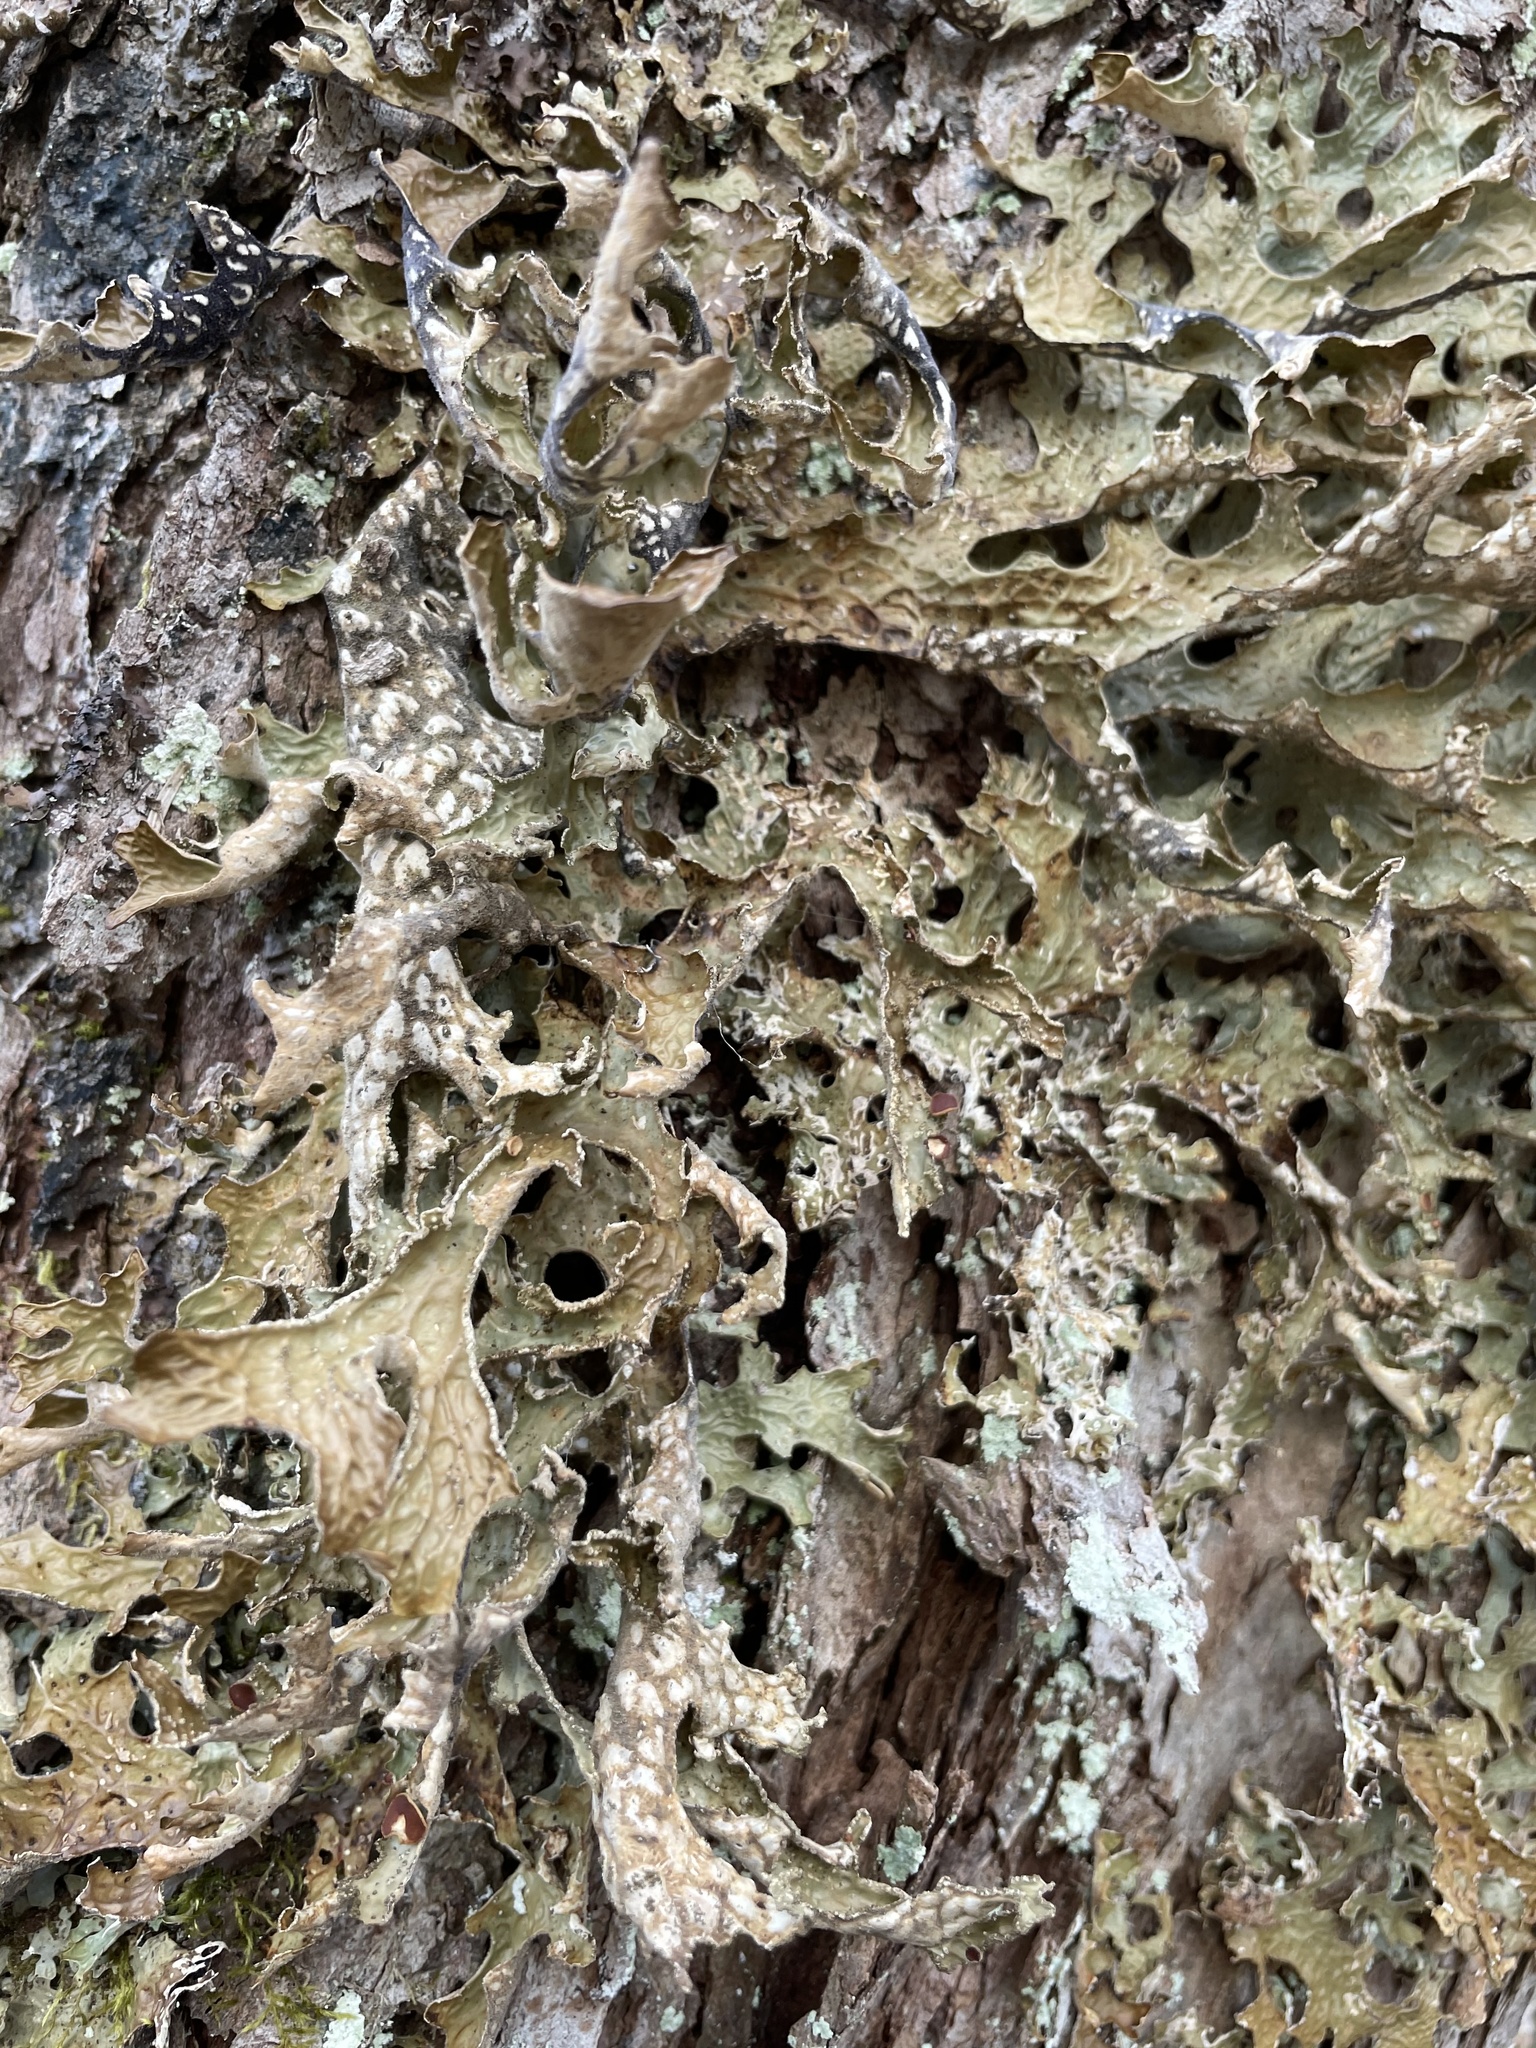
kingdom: Fungi
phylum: Ascomycota
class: Lecanoromycetes
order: Peltigerales
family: Lobariaceae
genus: Lobaria
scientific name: Lobaria pulmonaria
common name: Lungwort
